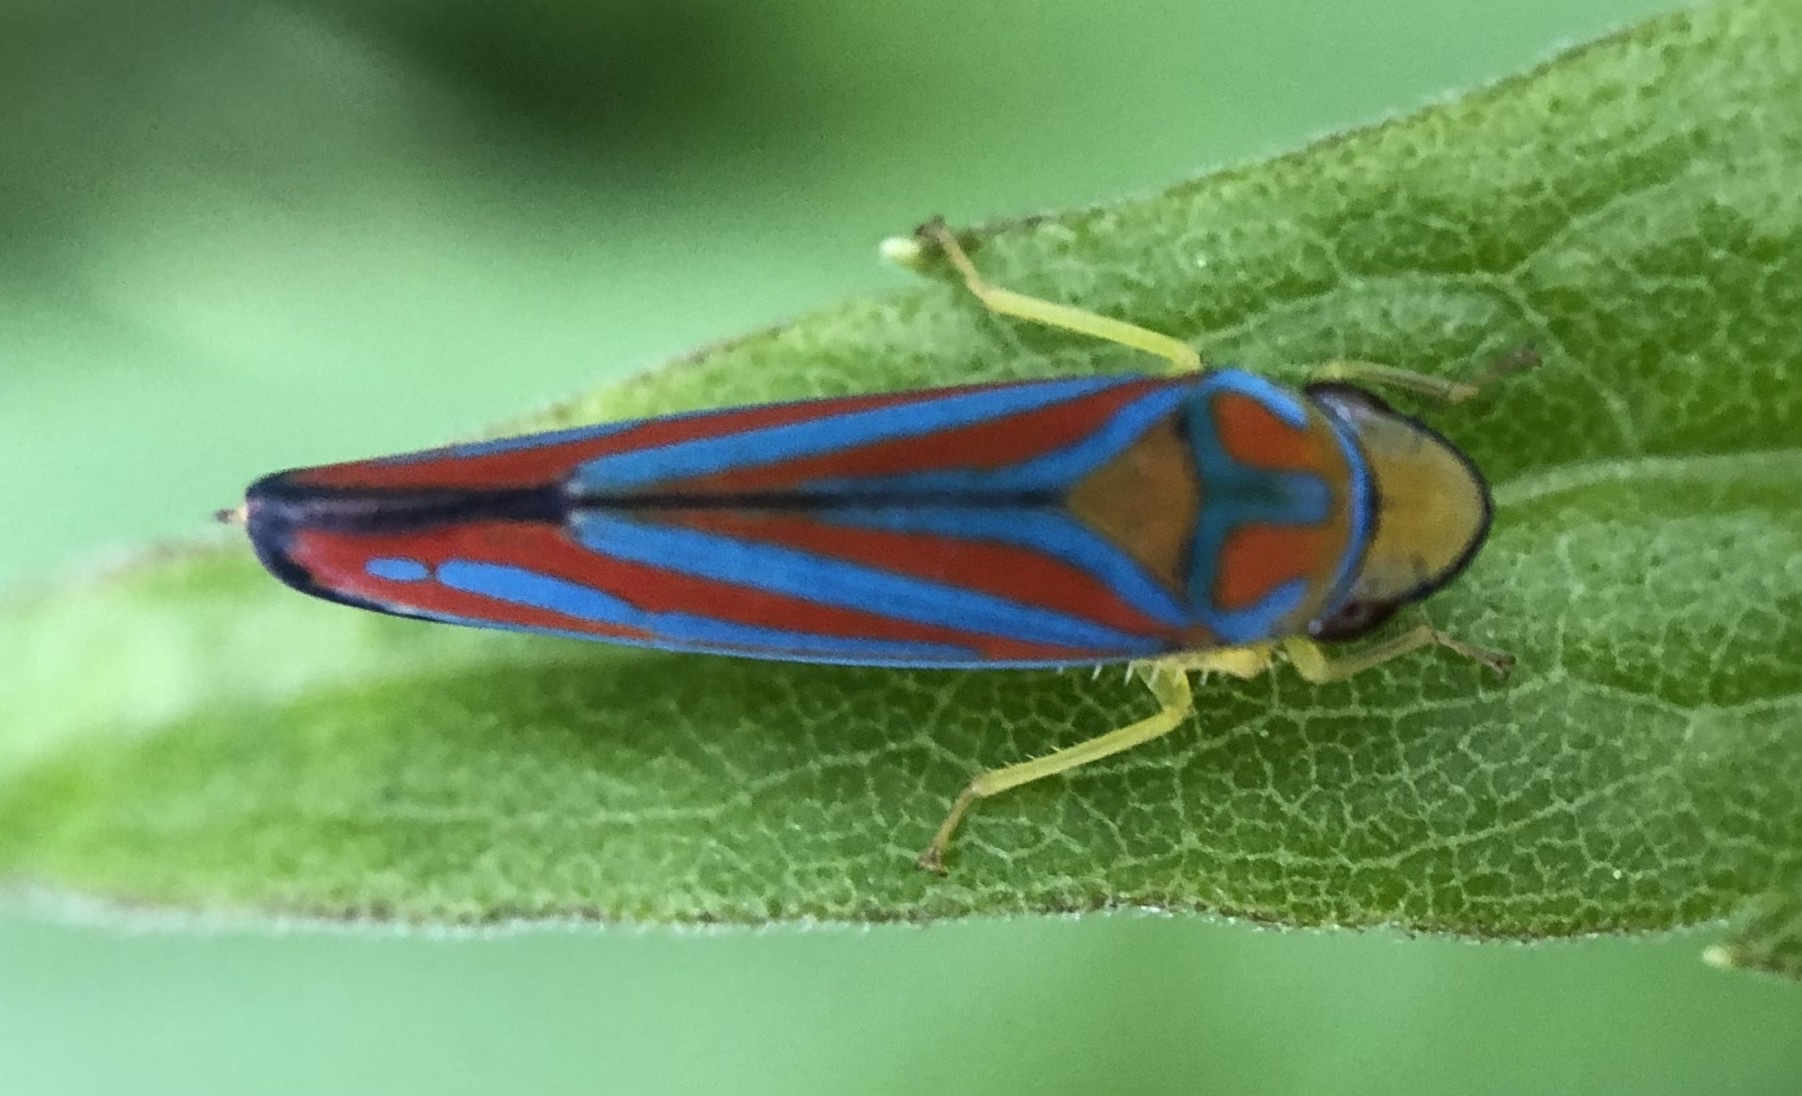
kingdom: Animalia
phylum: Arthropoda
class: Insecta
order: Hemiptera
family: Cicadellidae
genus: Graphocephala
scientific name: Graphocephala coccinea
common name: Candy-striped leafhopper
